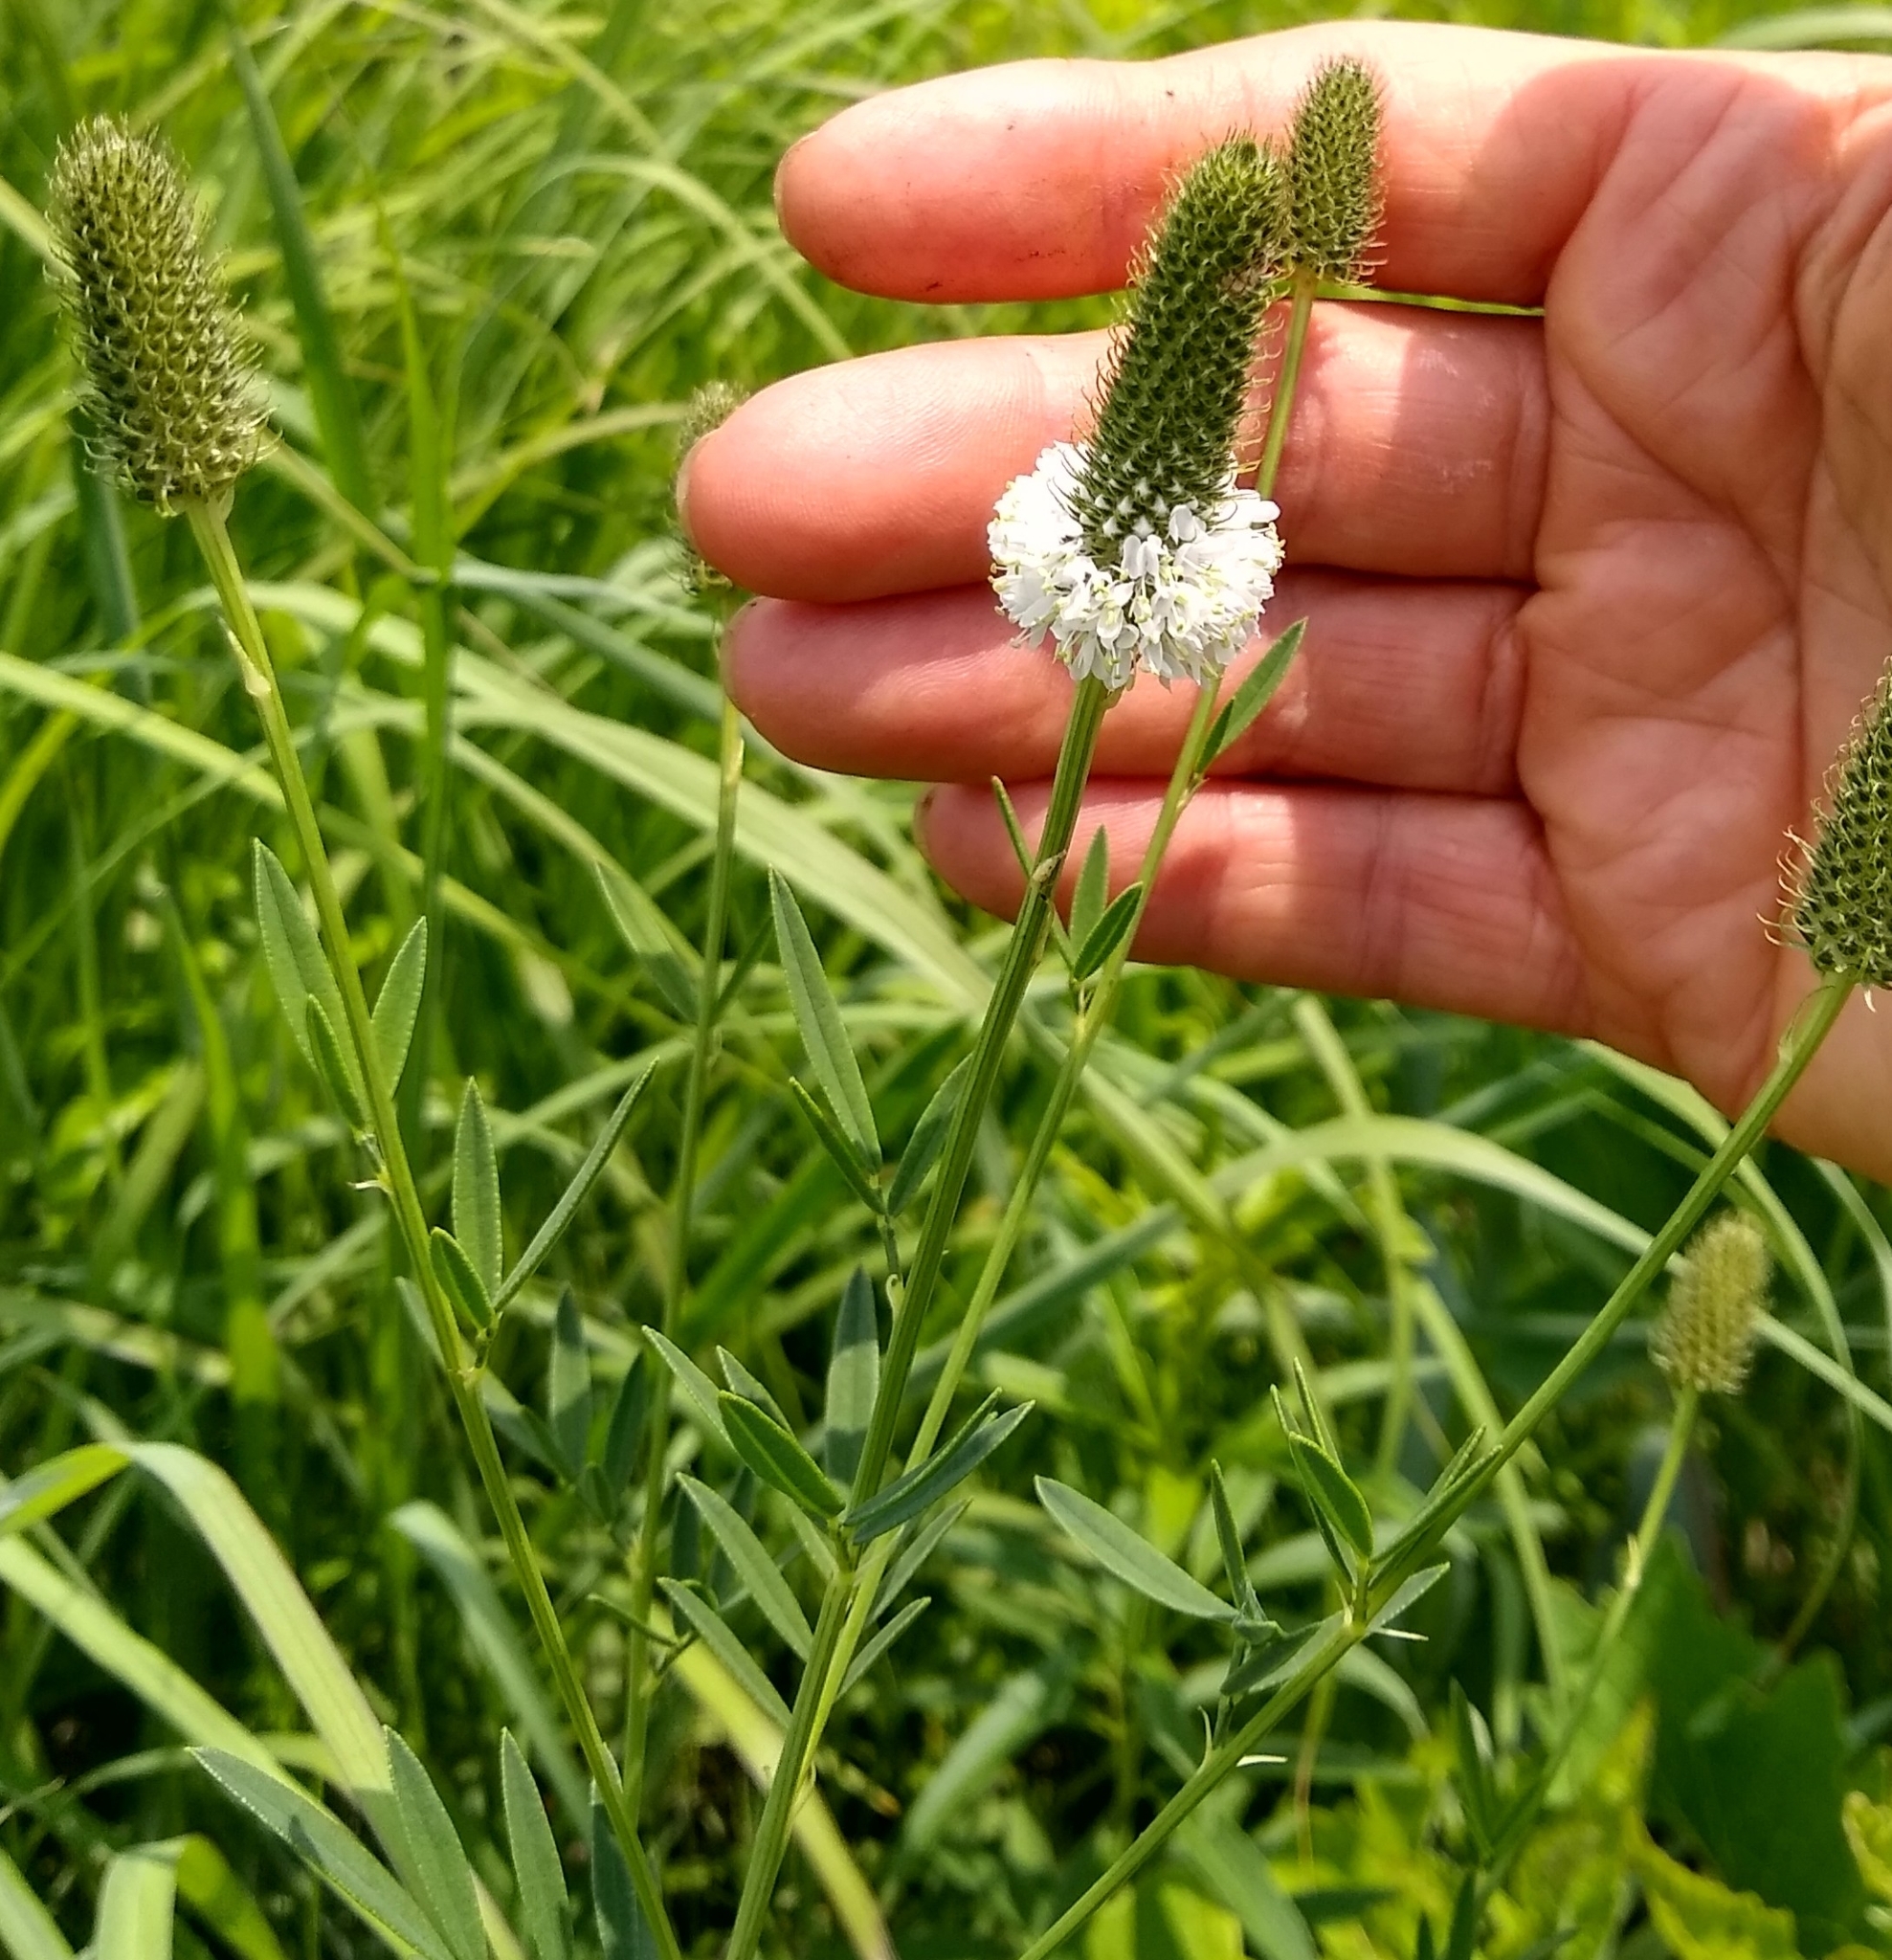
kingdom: Plantae
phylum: Tracheophyta
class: Magnoliopsida
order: Fabales
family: Fabaceae
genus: Dalea
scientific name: Dalea candida
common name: White prairie-clover
